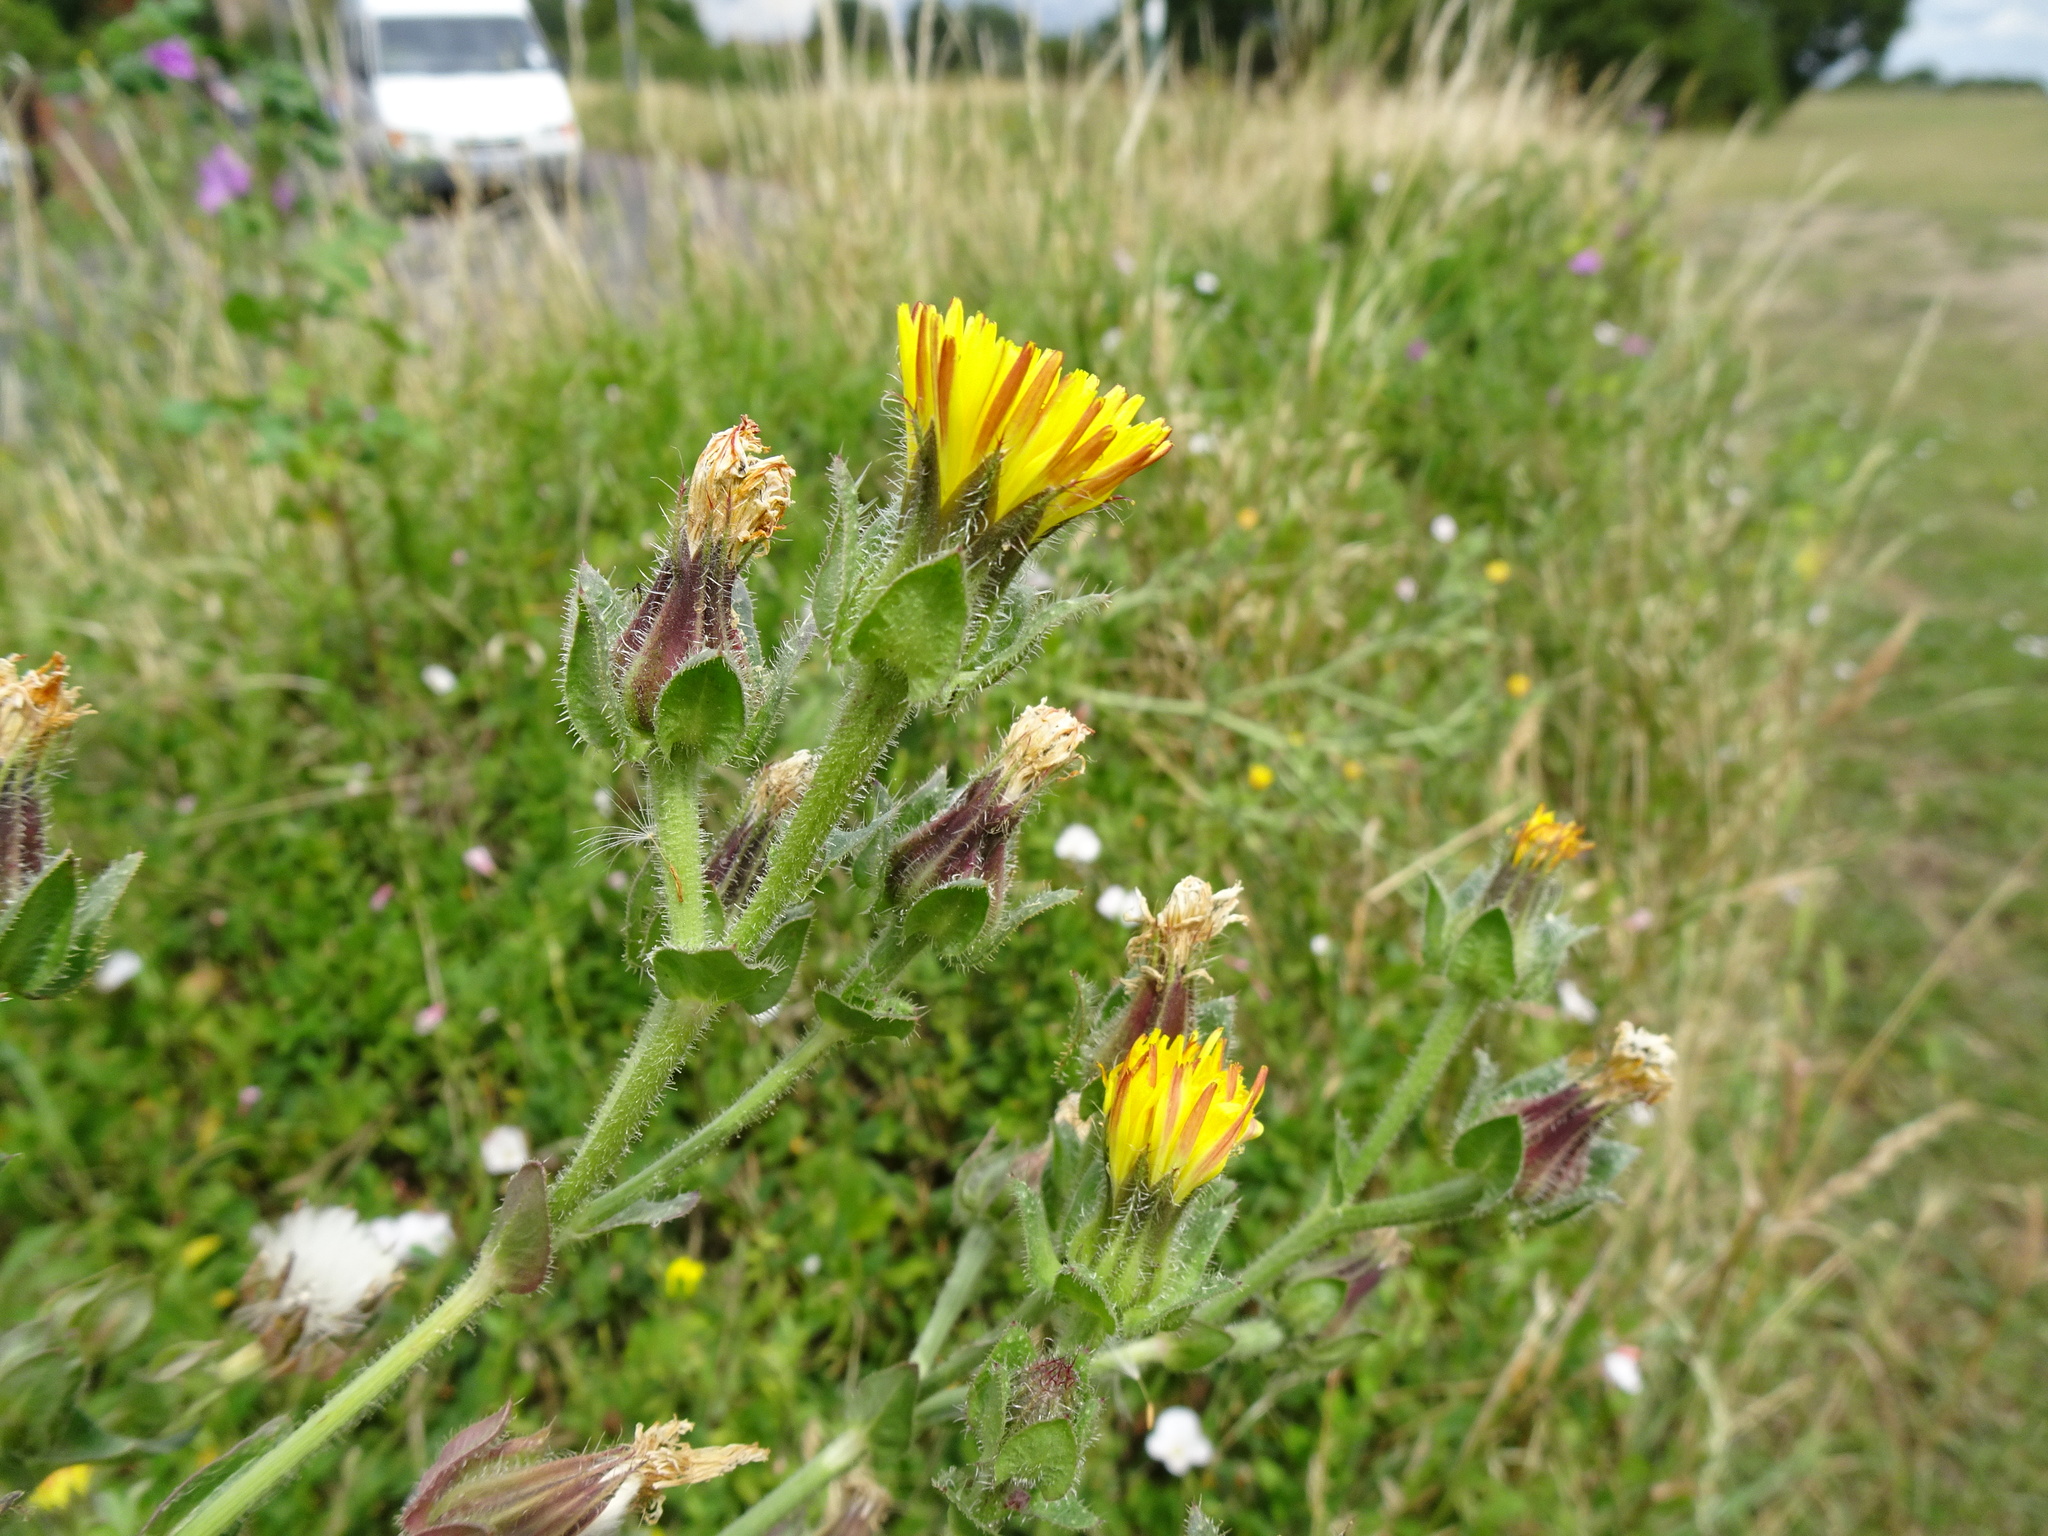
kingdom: Plantae
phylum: Tracheophyta
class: Magnoliopsida
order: Asterales
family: Asteraceae
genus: Helminthotheca
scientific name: Helminthotheca echioides
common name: Ox-tongue
